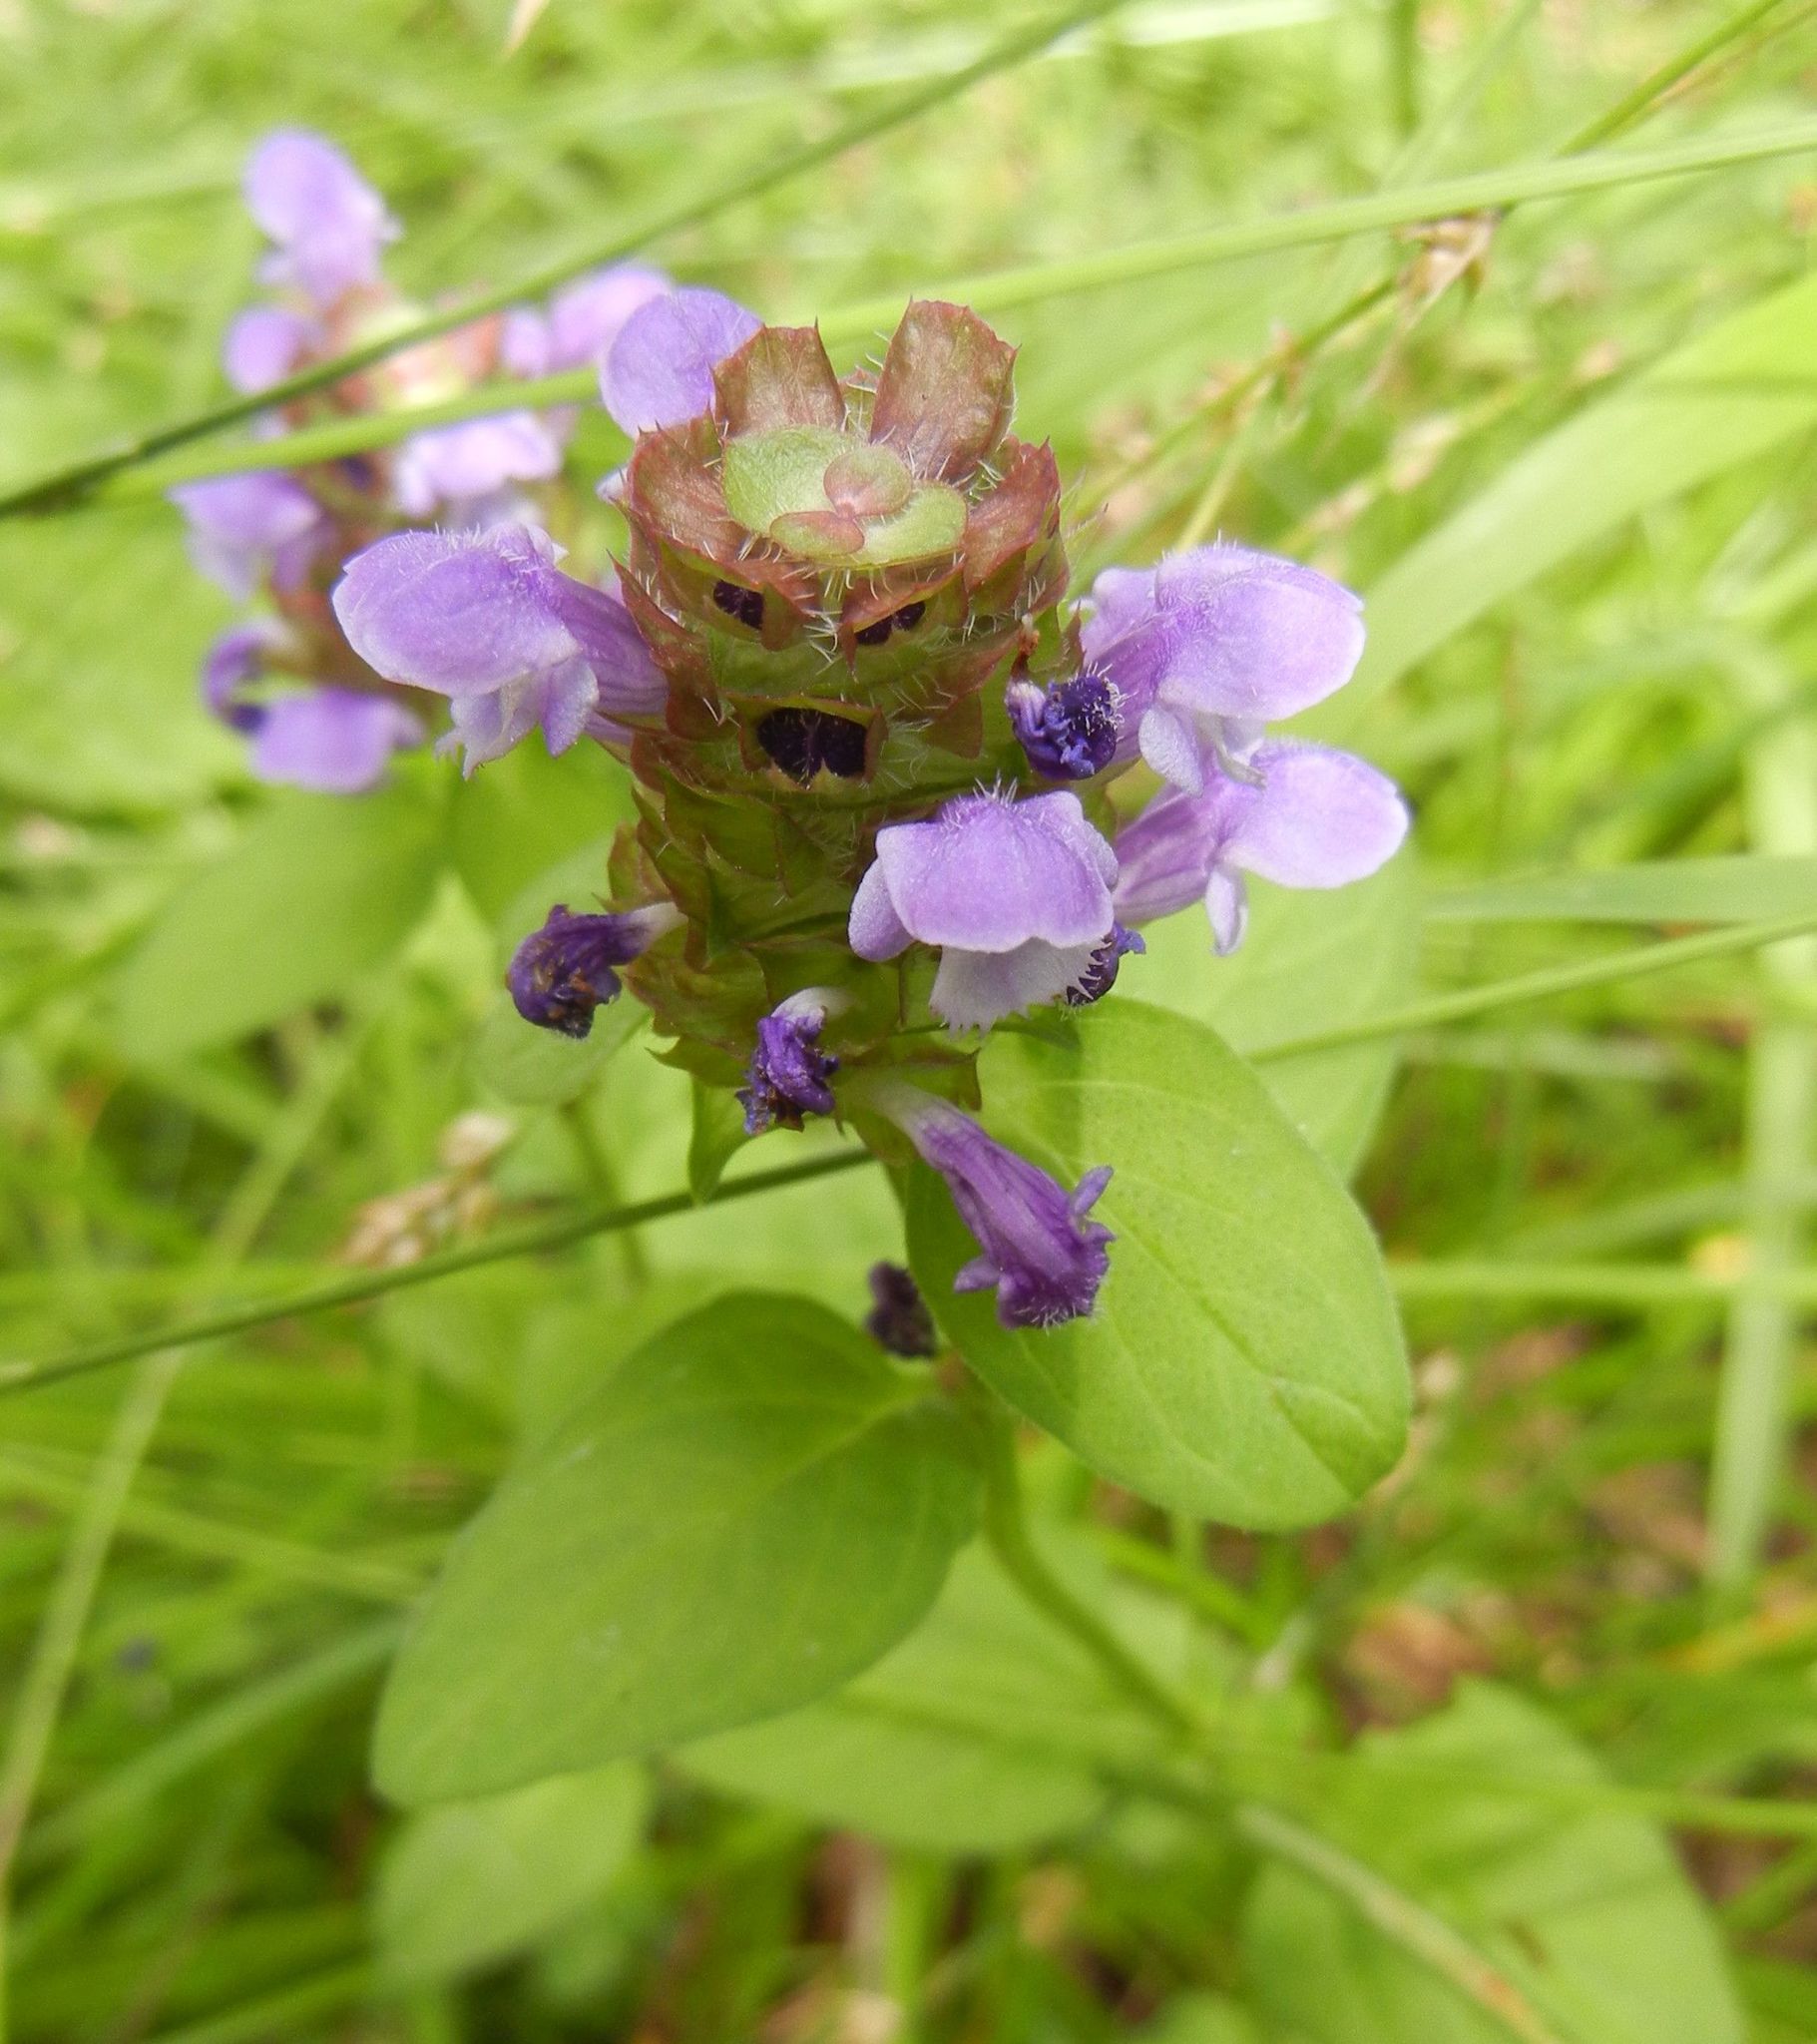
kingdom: Plantae
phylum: Tracheophyta
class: Magnoliopsida
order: Lamiales
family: Lamiaceae
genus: Prunella
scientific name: Prunella vulgaris
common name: Heal-all
